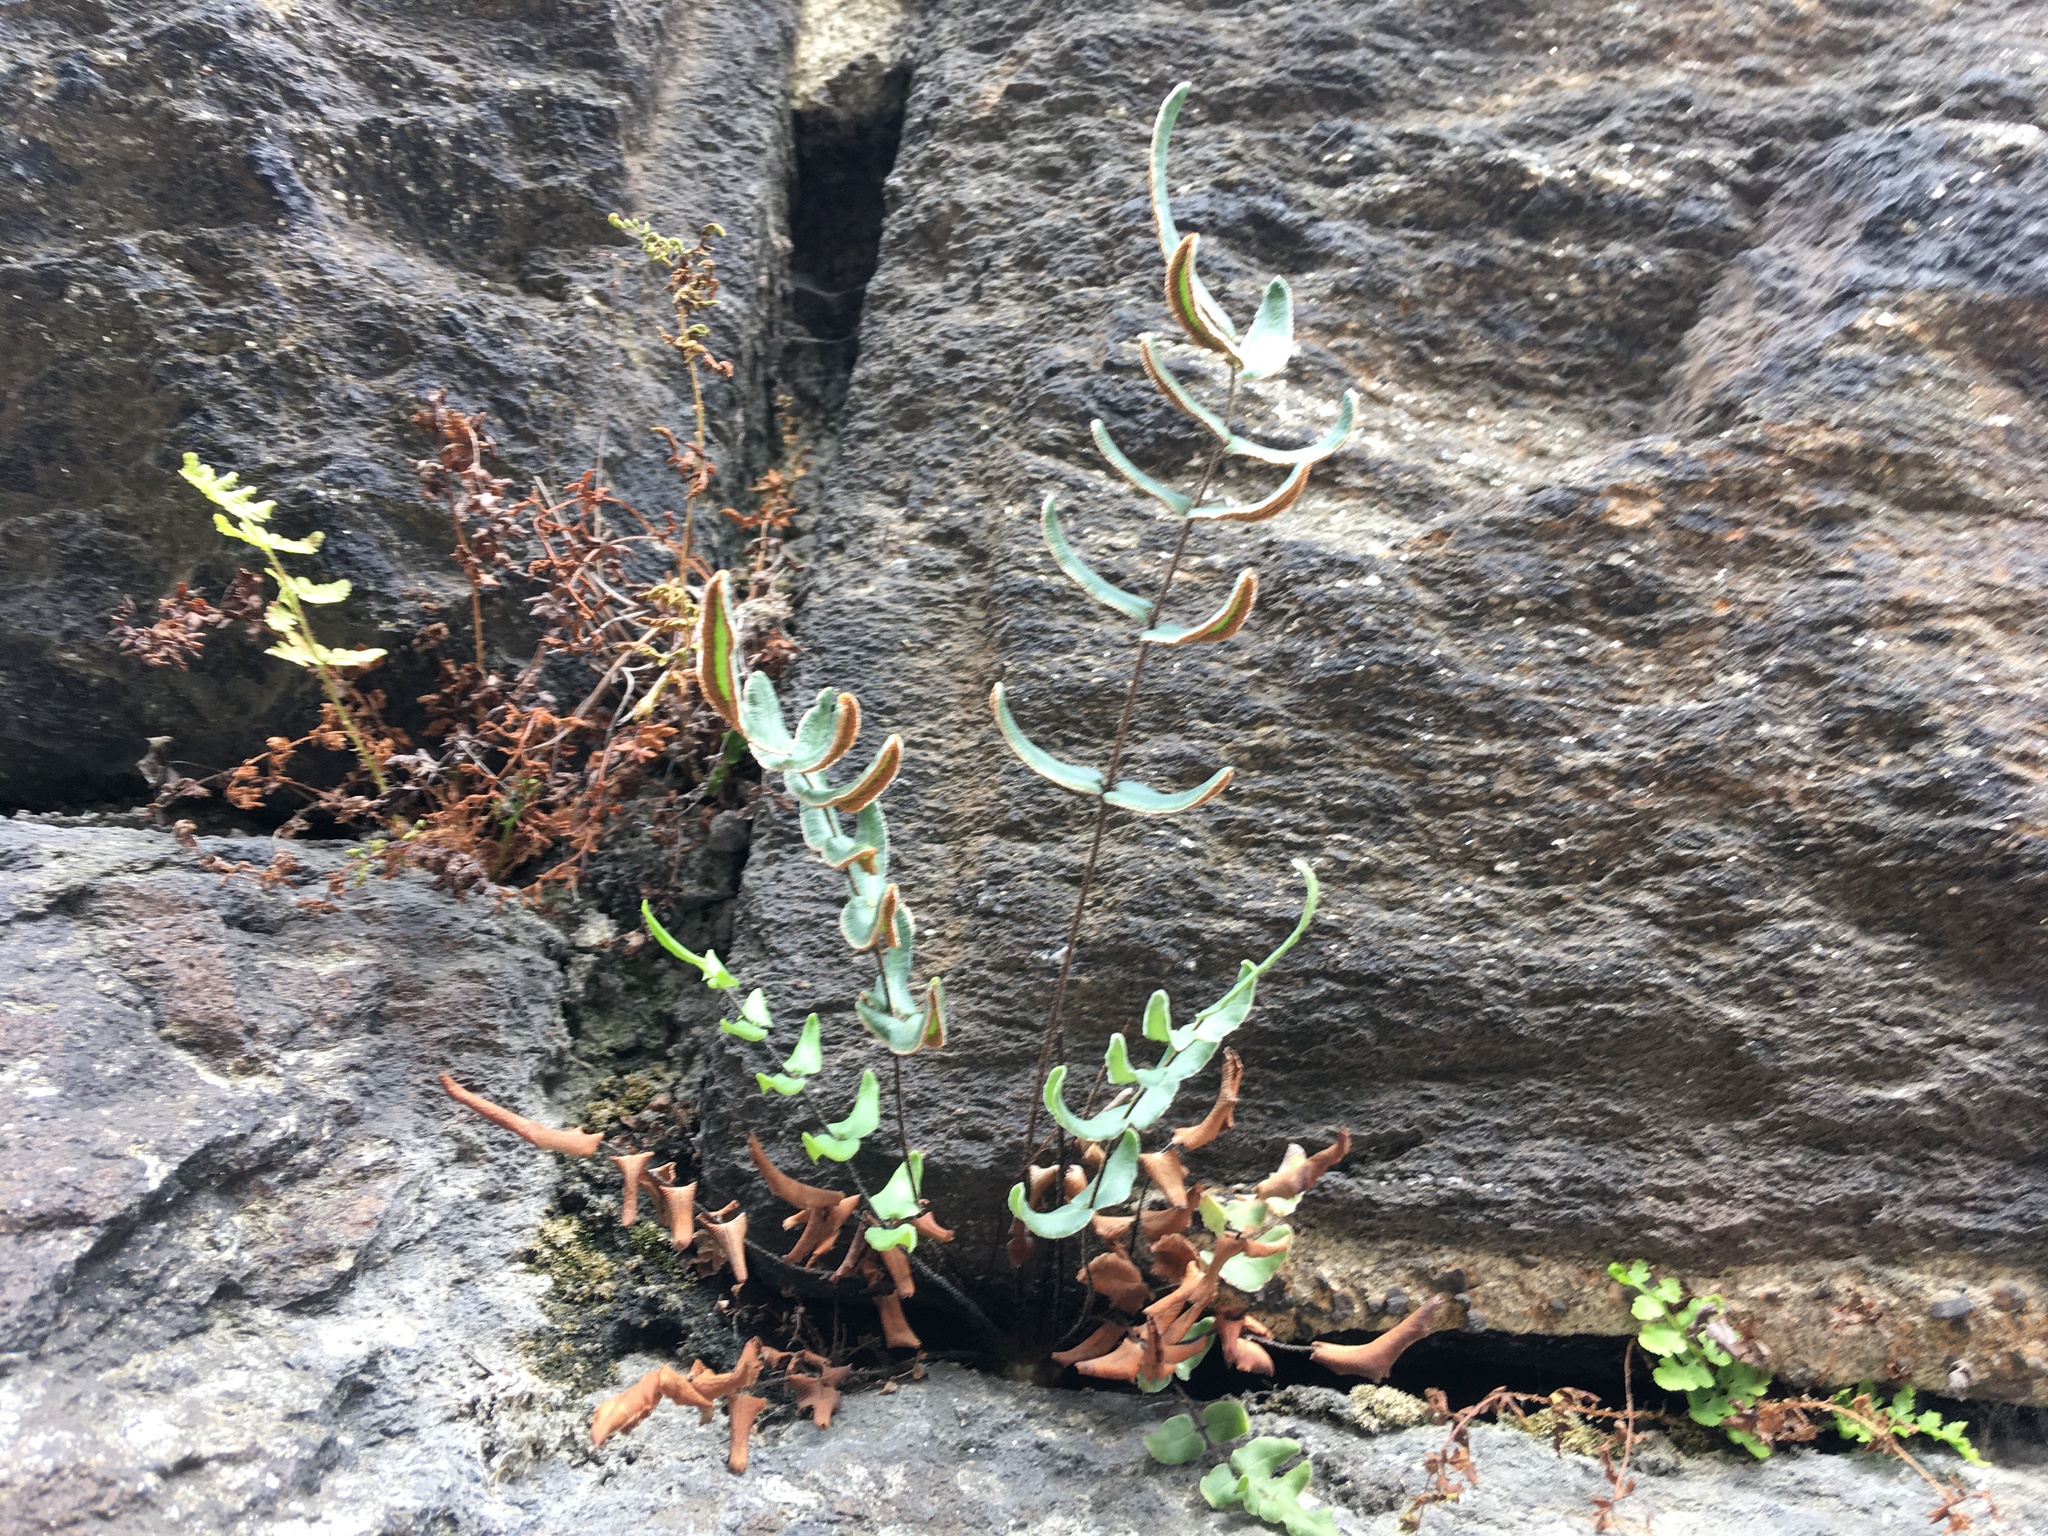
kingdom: Plantae
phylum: Tracheophyta
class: Polypodiopsida
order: Polypodiales
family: Pteridaceae
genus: Pellaea
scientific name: Pellaea atropurpurea
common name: Hairy cliffbrake
